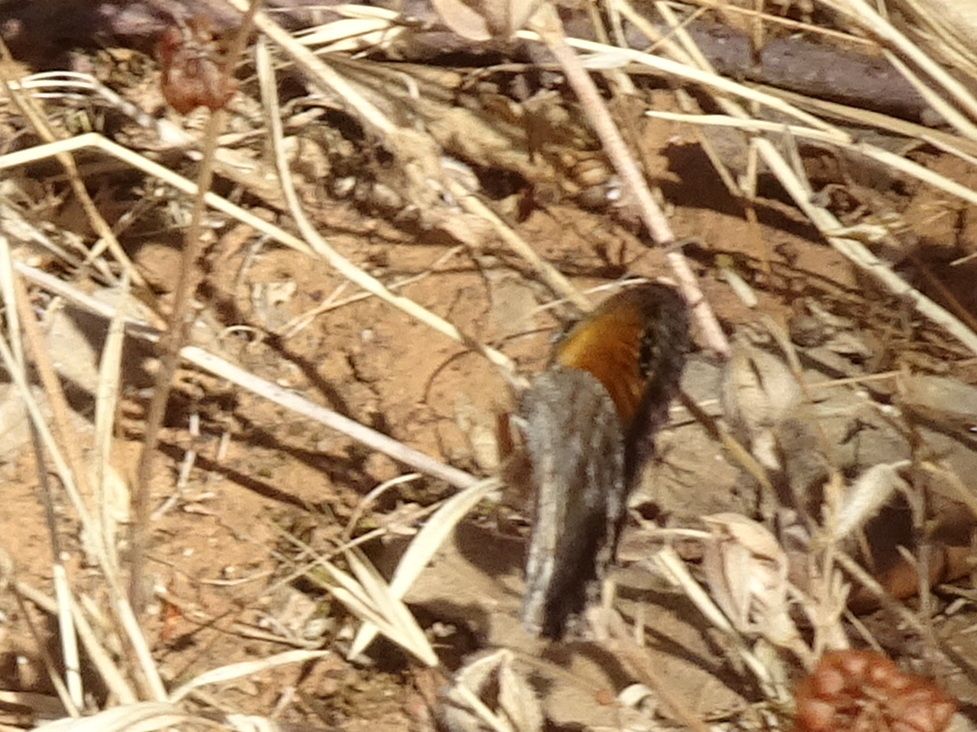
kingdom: Animalia
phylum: Arthropoda
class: Insecta
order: Lepidoptera
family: Nymphalidae
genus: Pyronia
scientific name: Pyronia cecilia
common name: Southern gatekeeper
